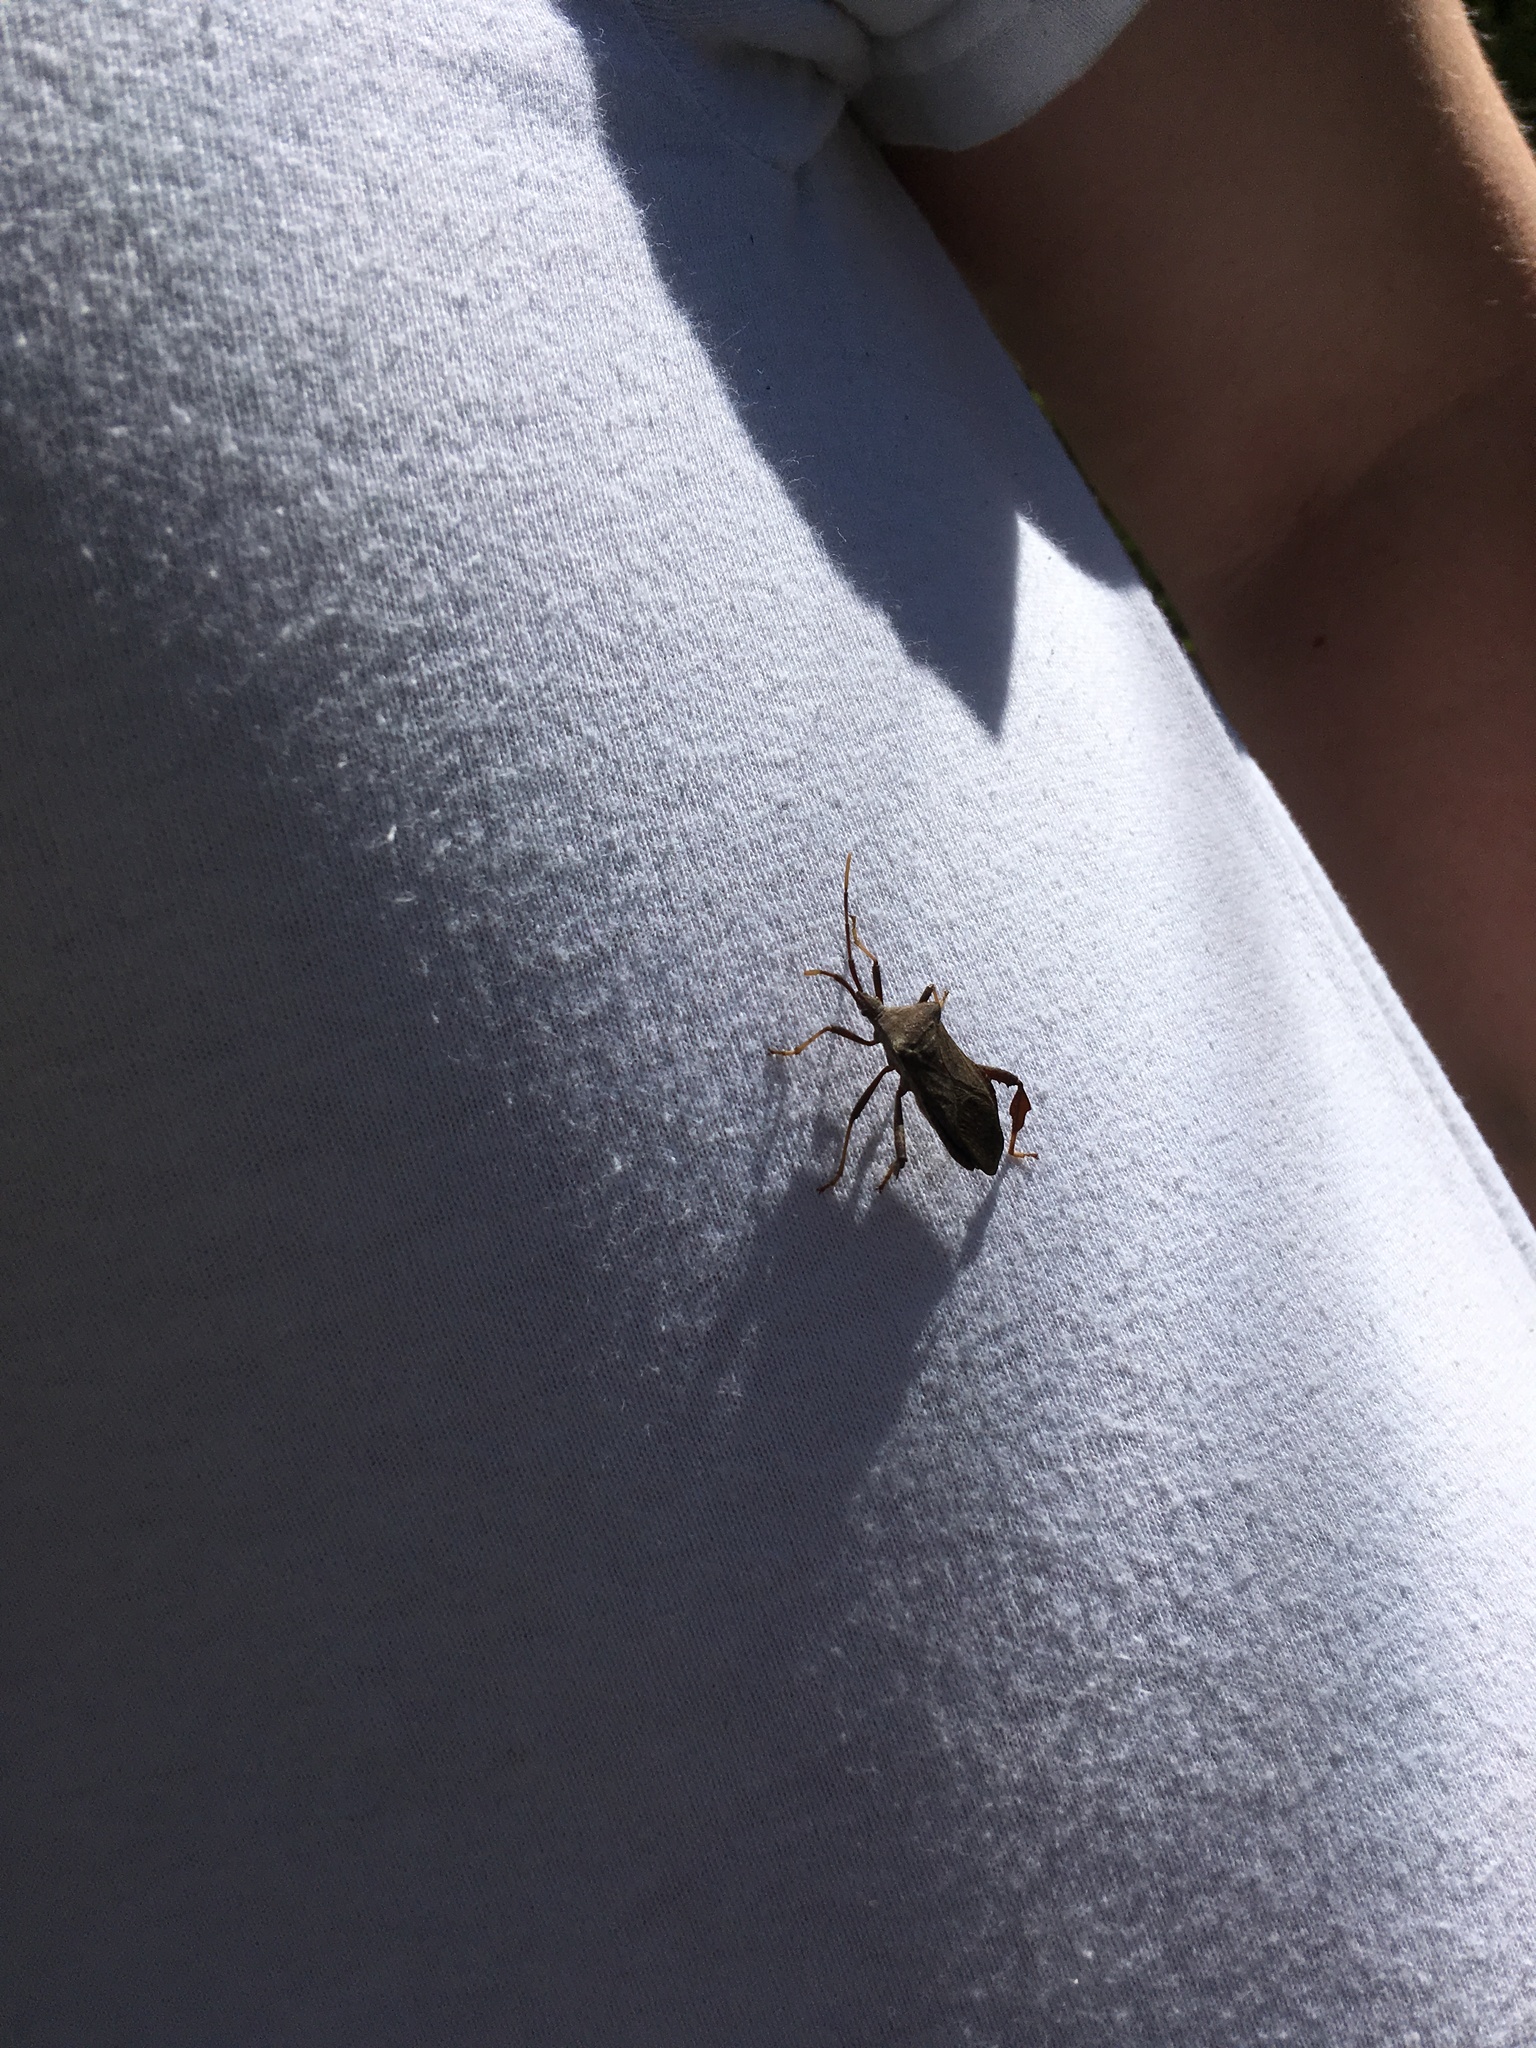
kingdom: Animalia
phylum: Arthropoda
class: Insecta
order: Hemiptera
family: Coreidae
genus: Acanthocephala
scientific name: Acanthocephala terminalis
